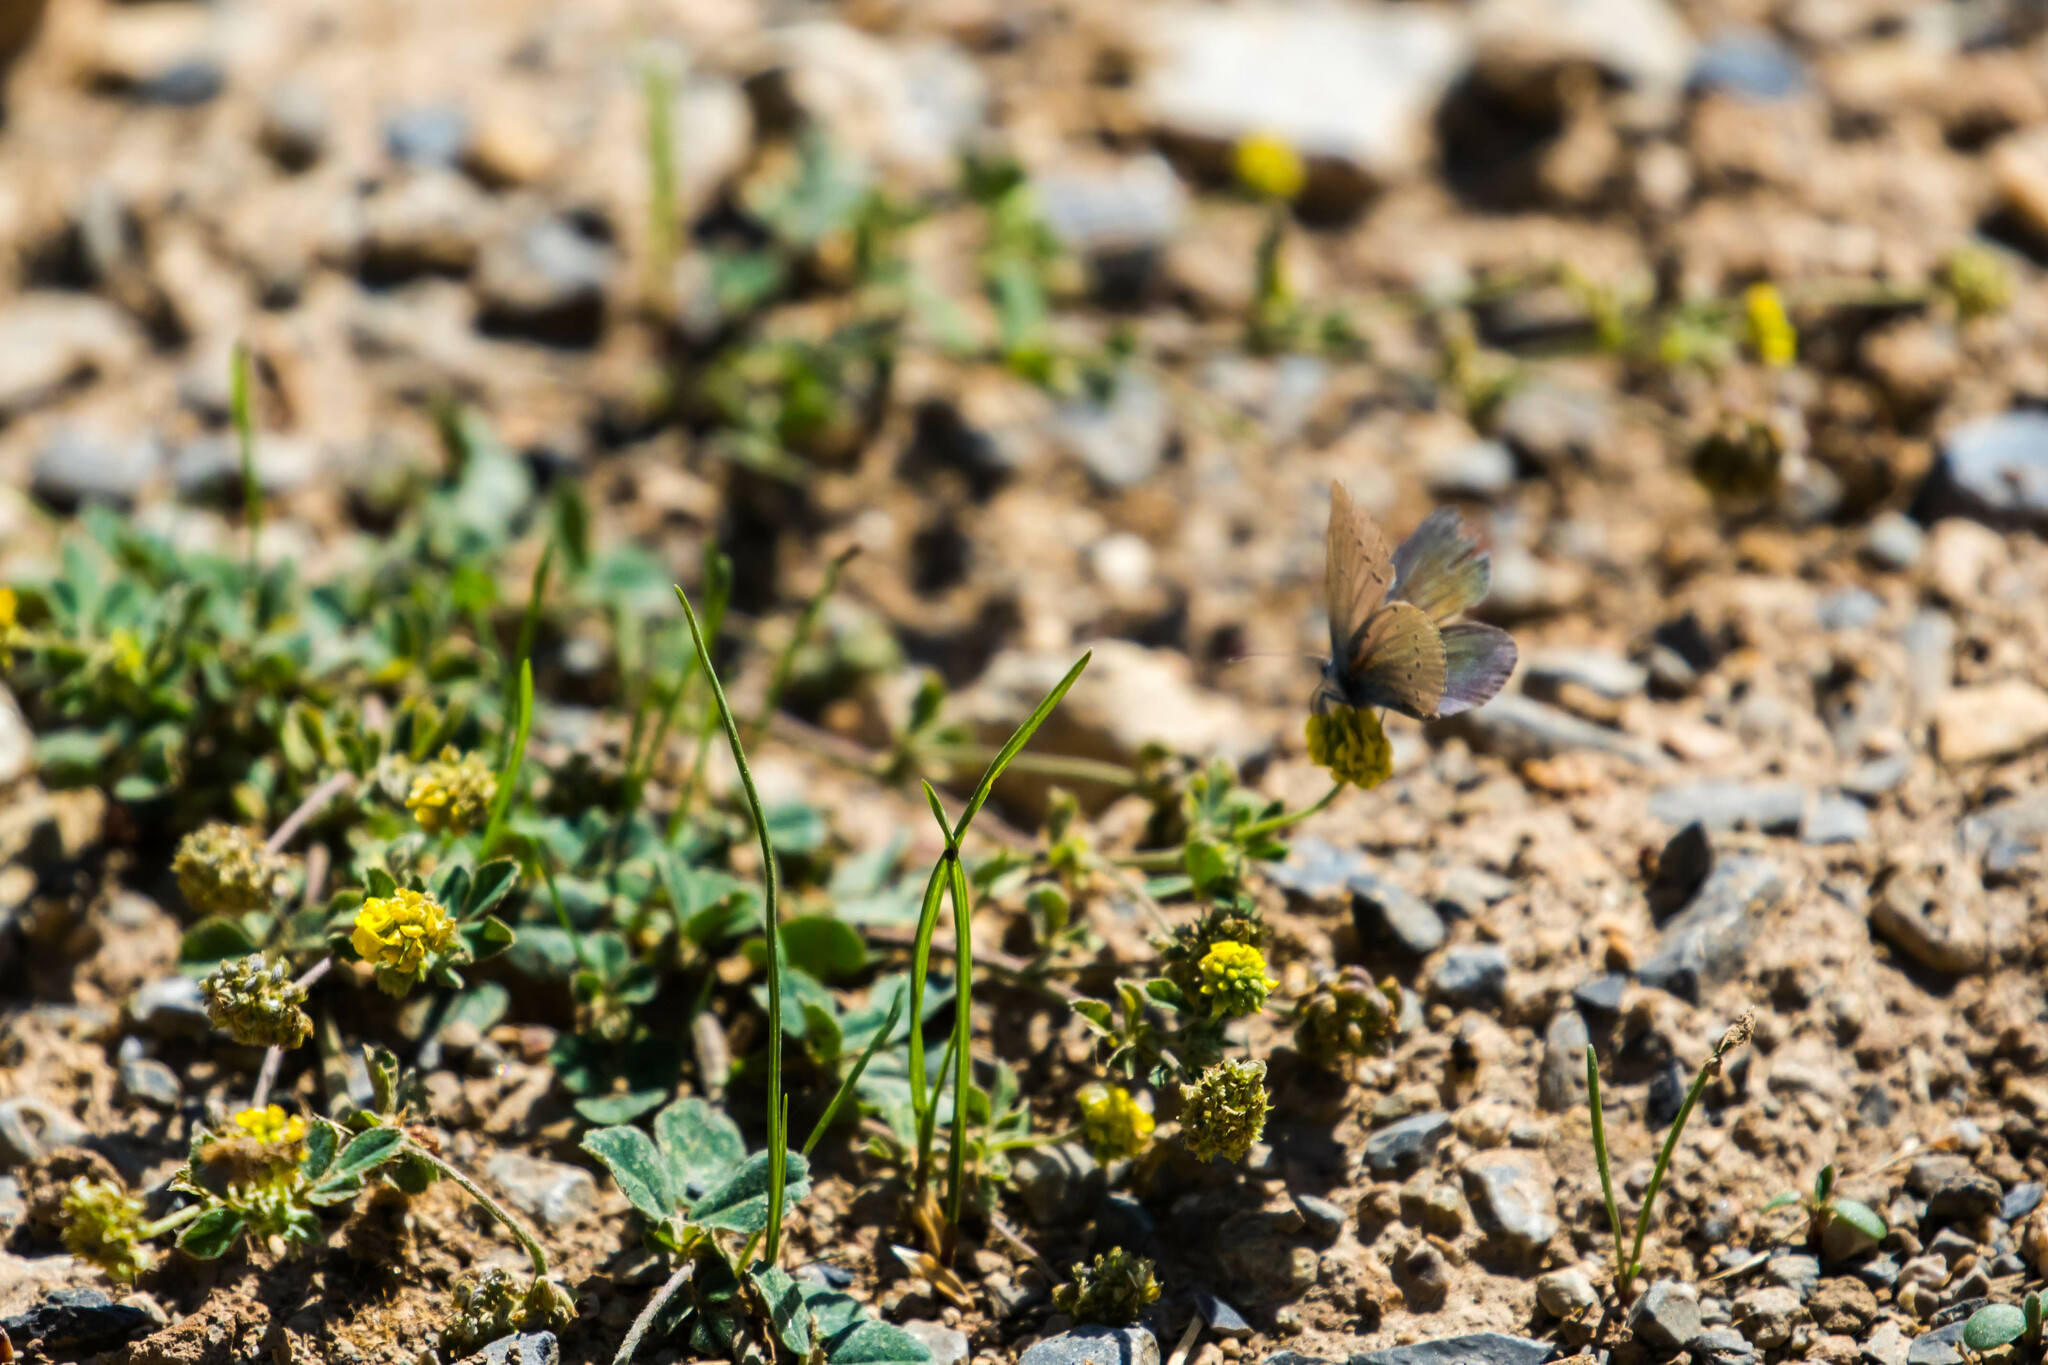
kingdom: Animalia
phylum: Arthropoda
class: Insecta
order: Lepidoptera
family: Lycaenidae
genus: Cupido
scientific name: Cupido minimus
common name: Small blue
